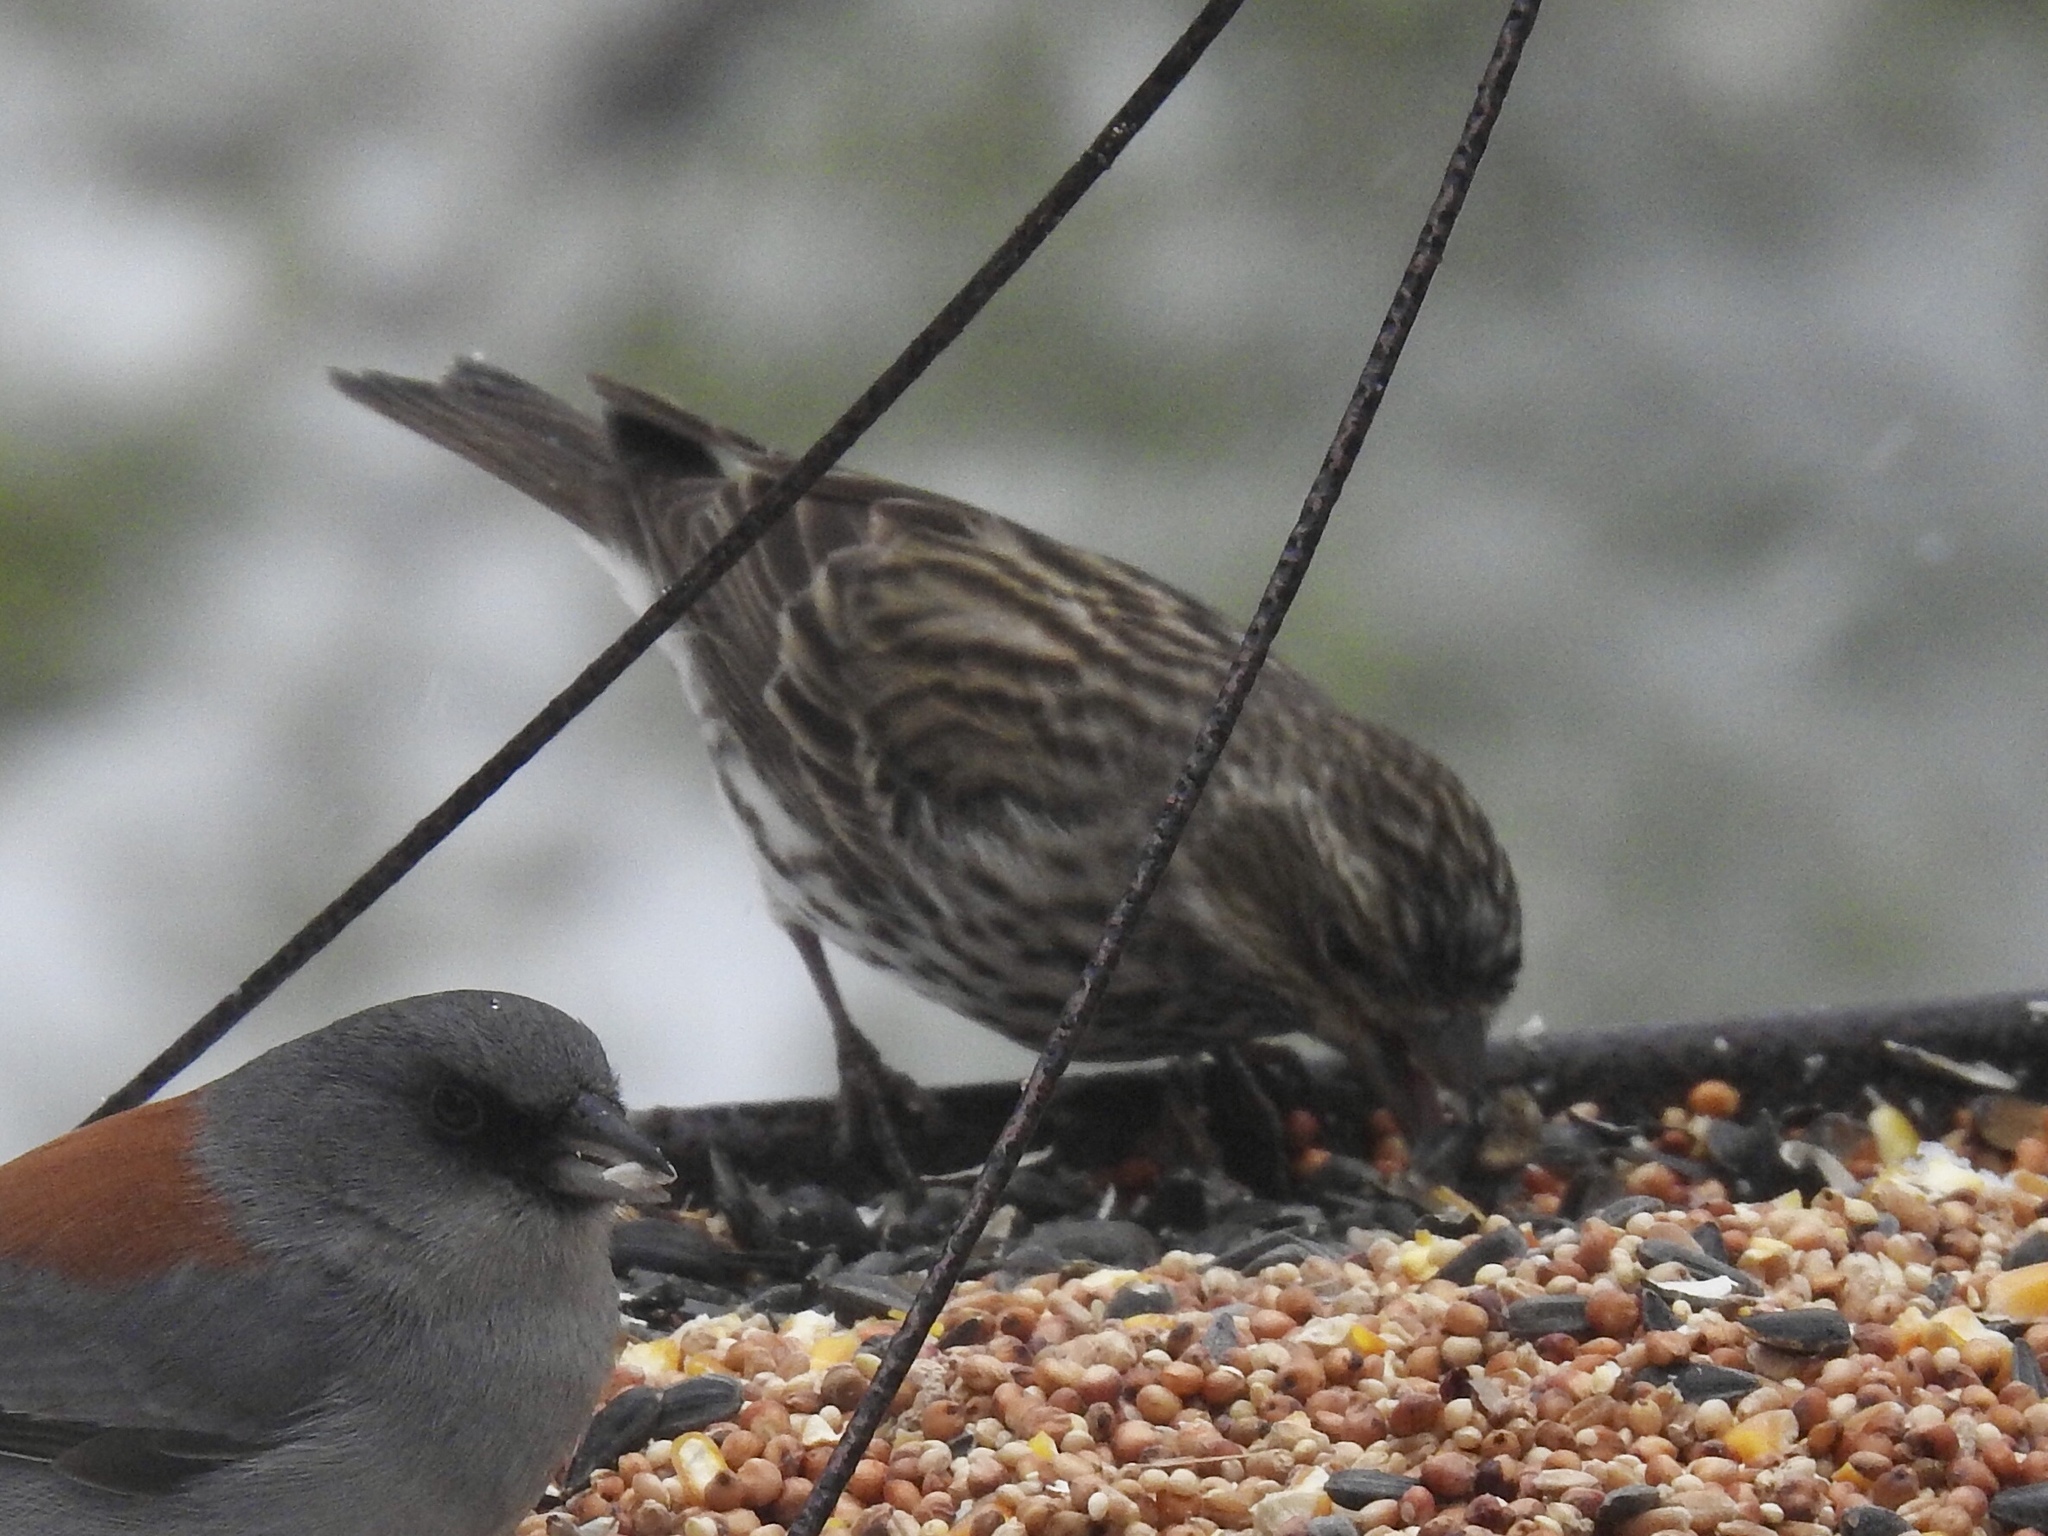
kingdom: Animalia
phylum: Chordata
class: Aves
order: Passeriformes
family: Fringillidae
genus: Haemorhous
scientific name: Haemorhous cassinii
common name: Cassin's finch
